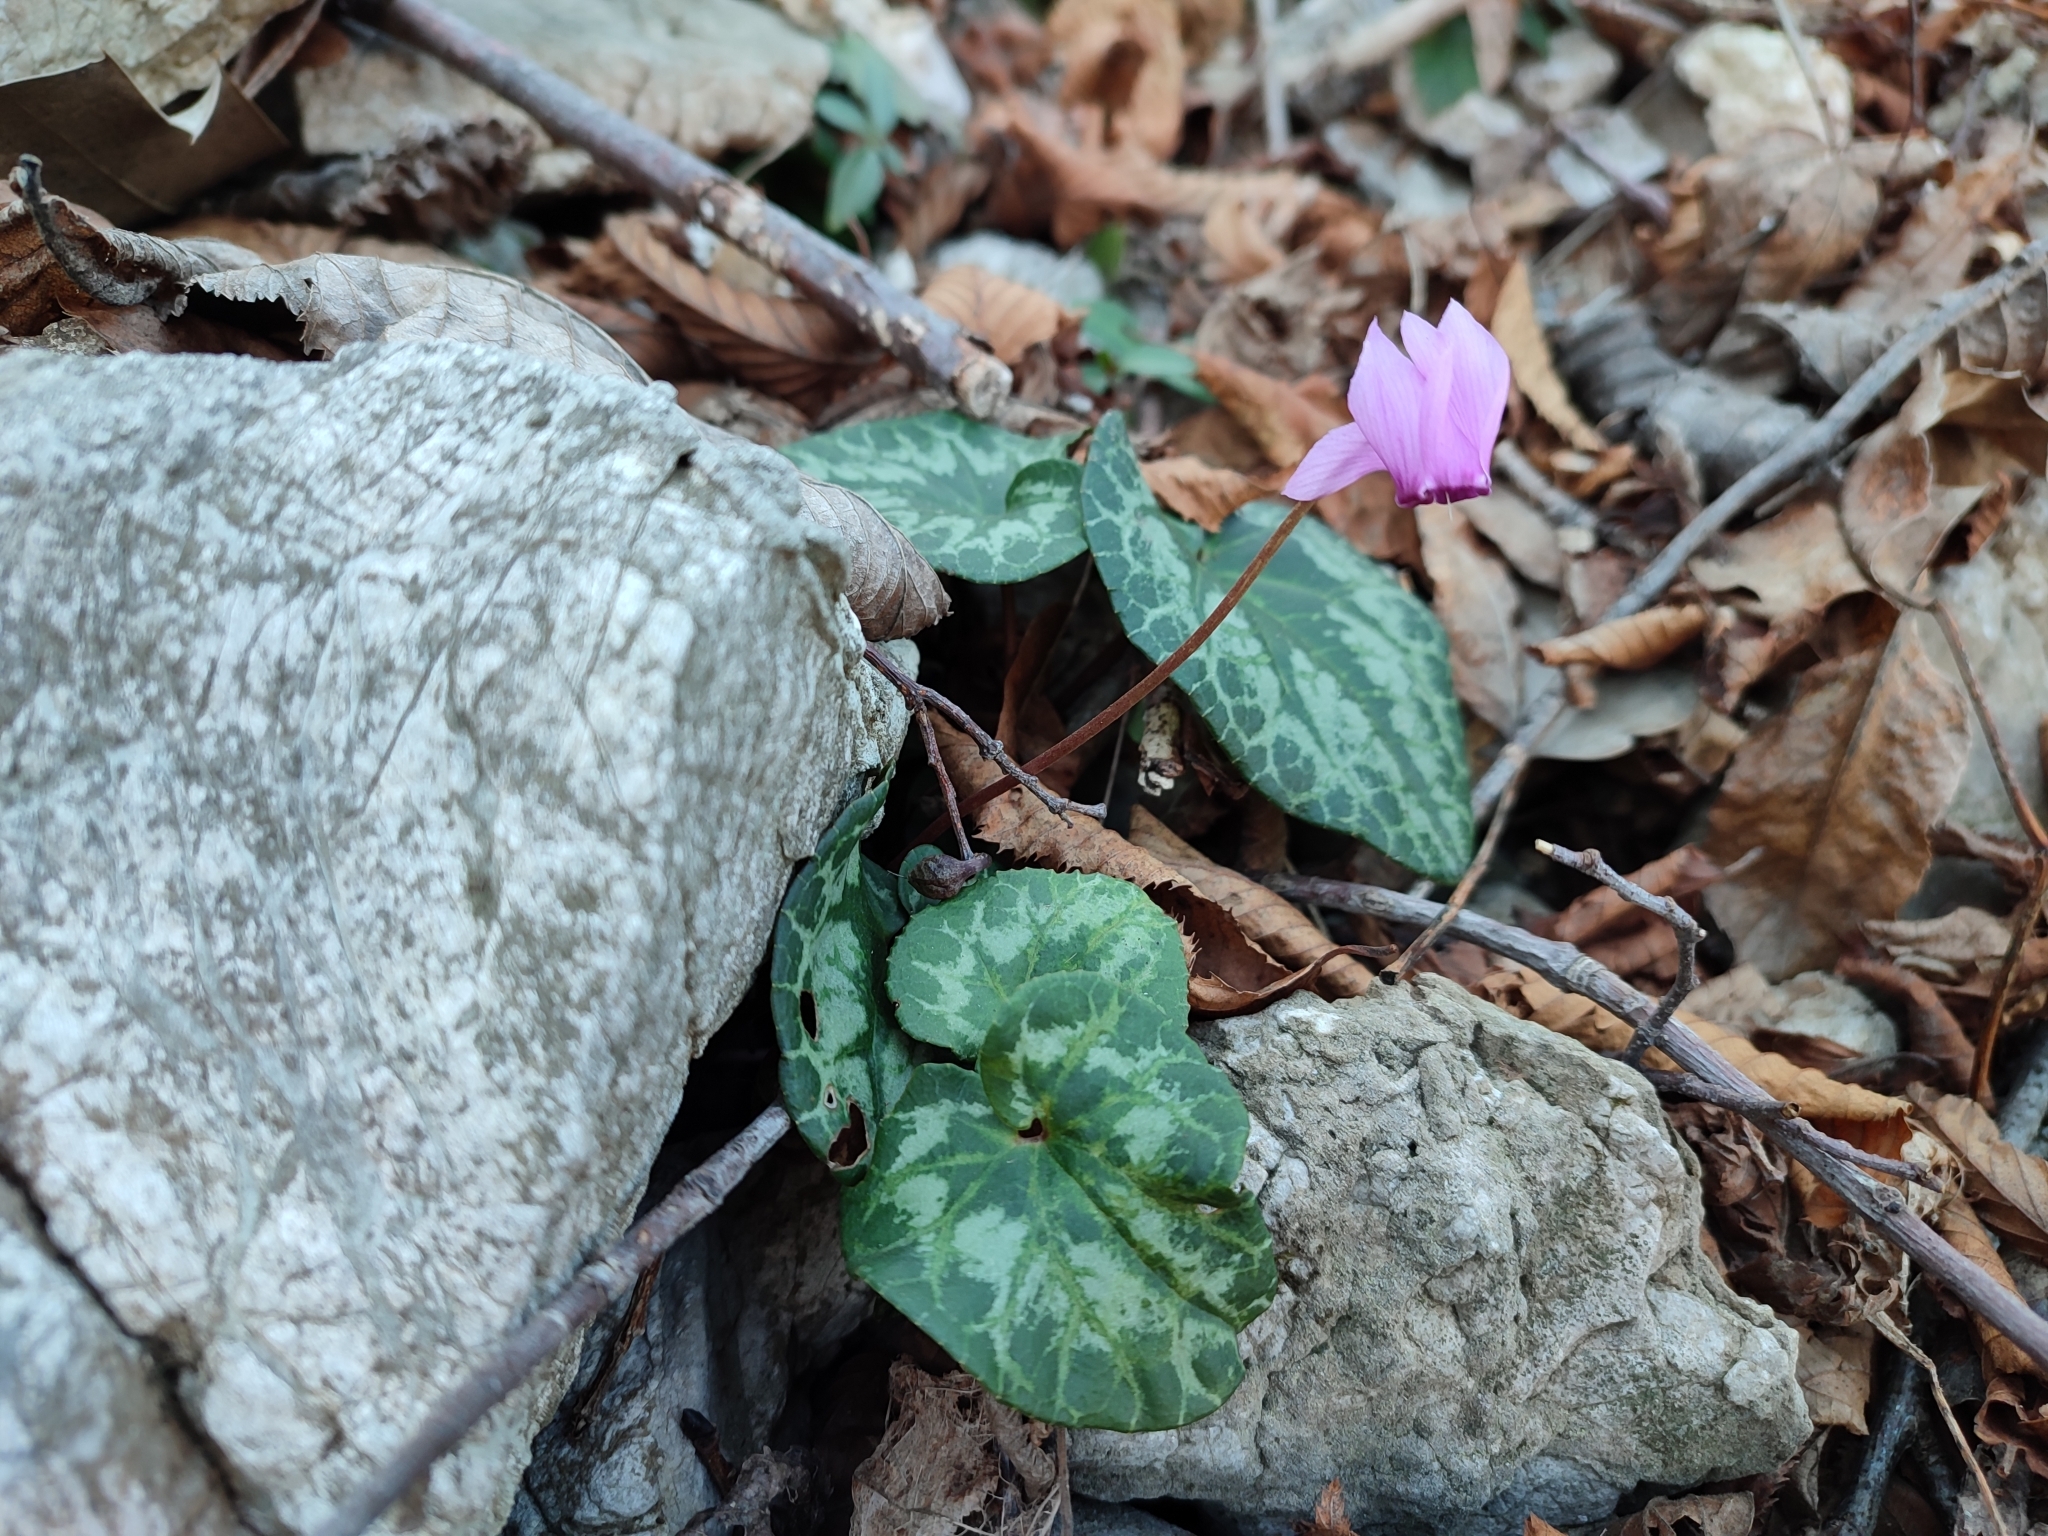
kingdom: Plantae
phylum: Tracheophyta
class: Magnoliopsida
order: Ericales
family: Primulaceae
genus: Cyclamen
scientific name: Cyclamen purpurascens
